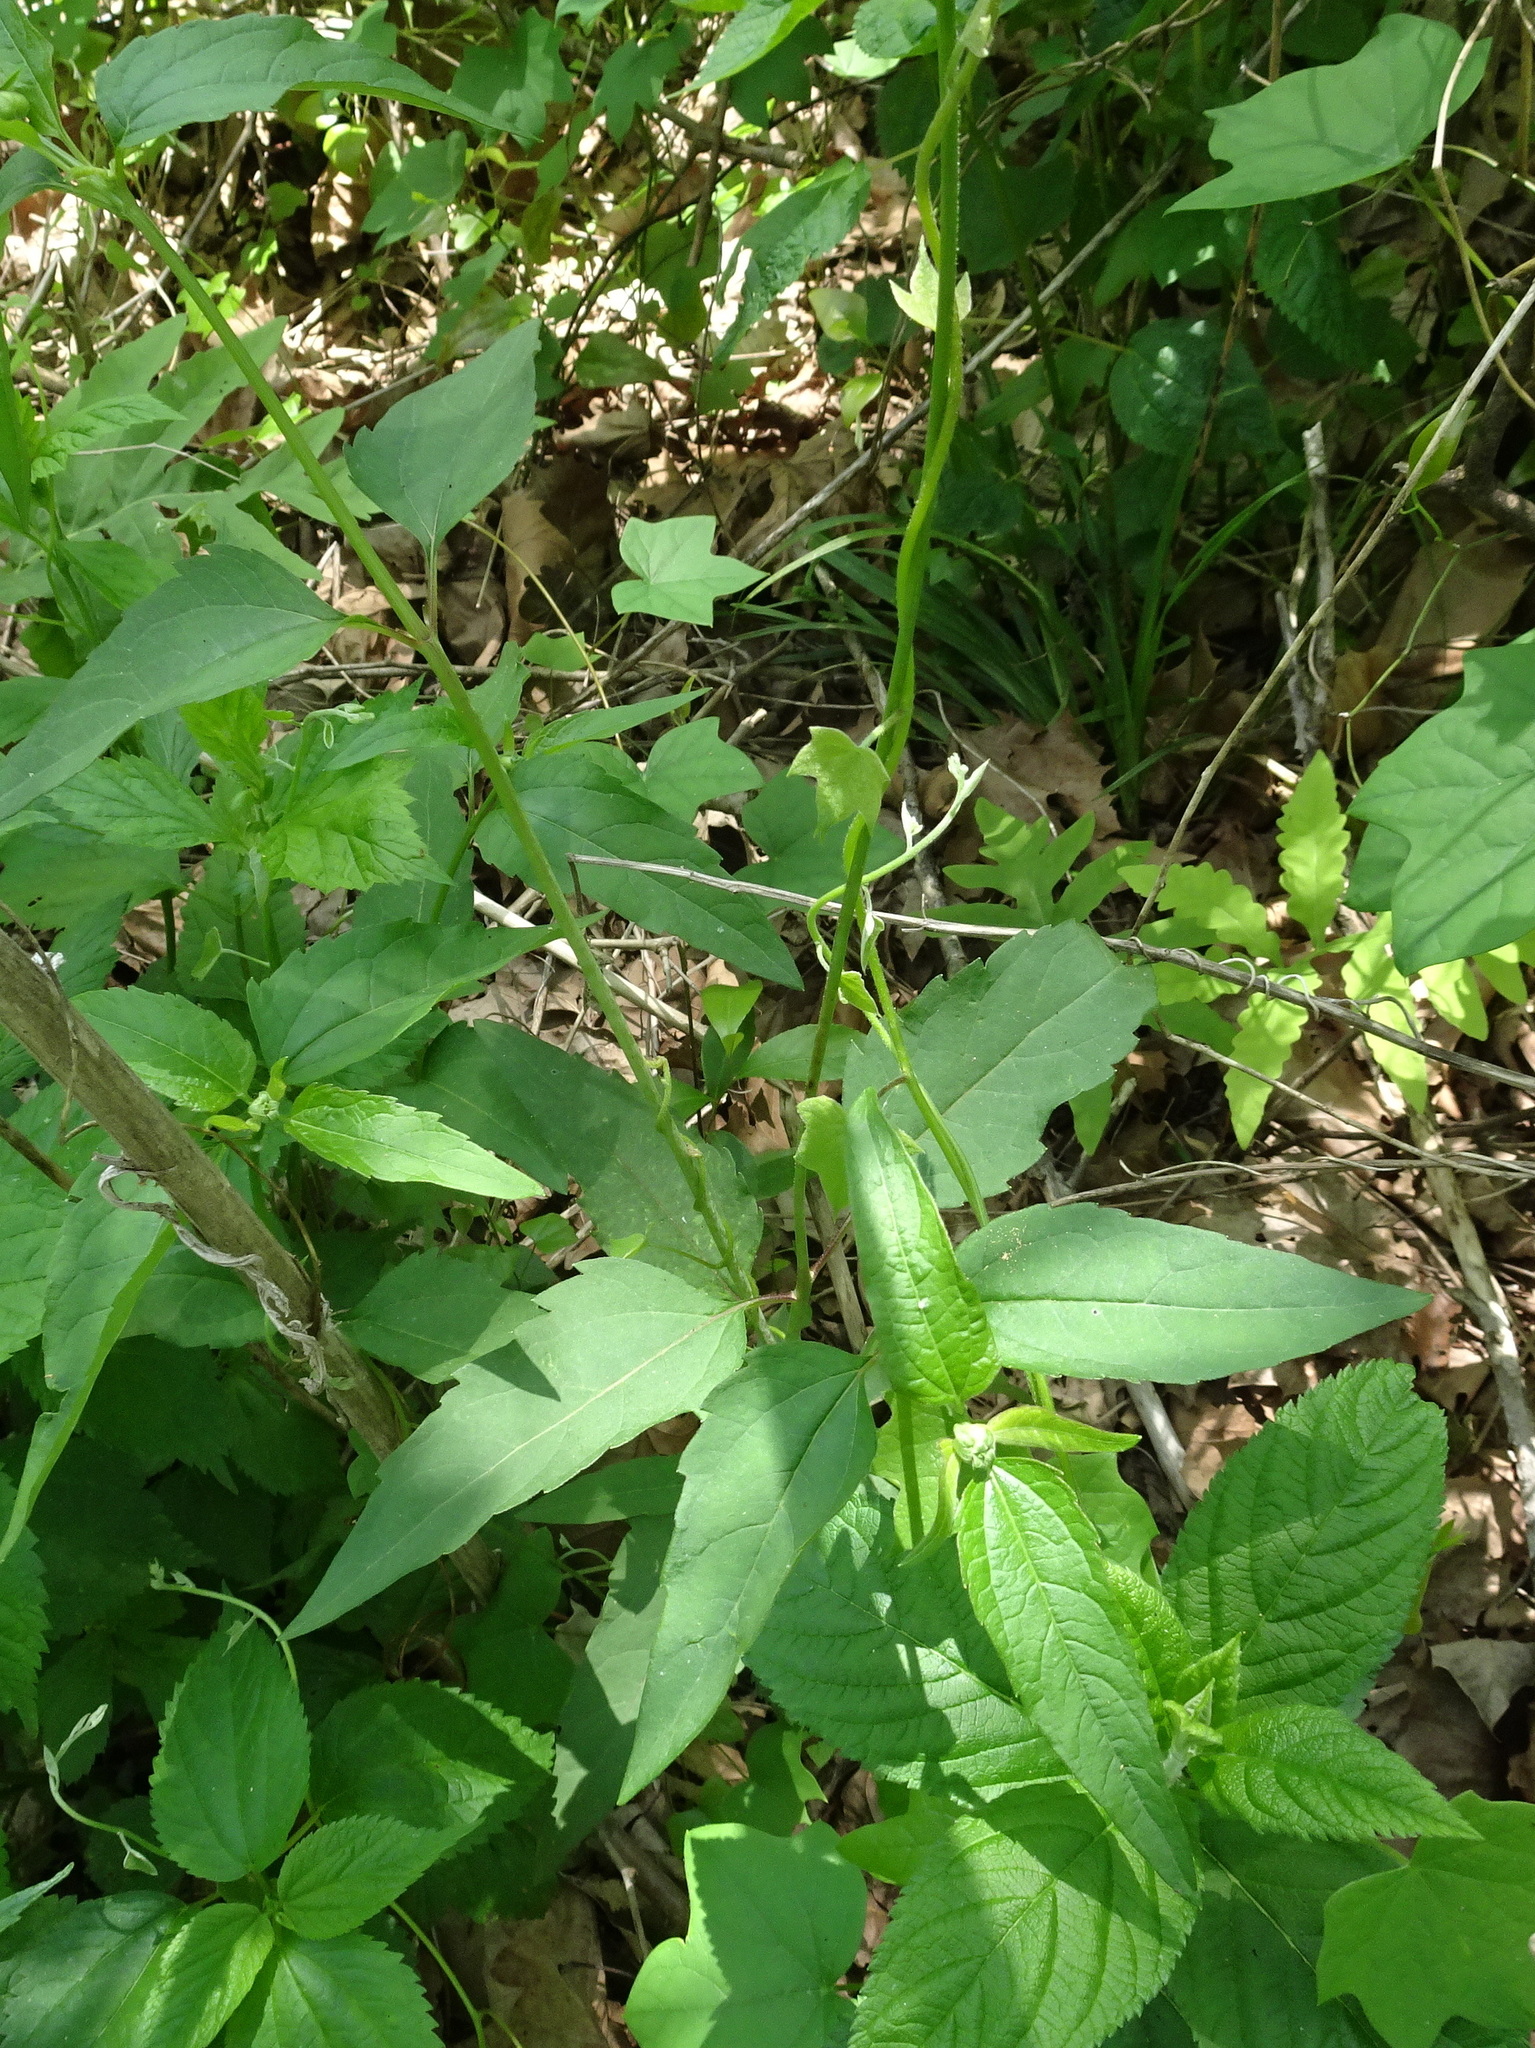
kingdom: Plantae
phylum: Tracheophyta
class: Magnoliopsida
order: Asterales
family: Asteraceae
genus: Heliopsis
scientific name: Heliopsis helianthoides
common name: False sunflower
